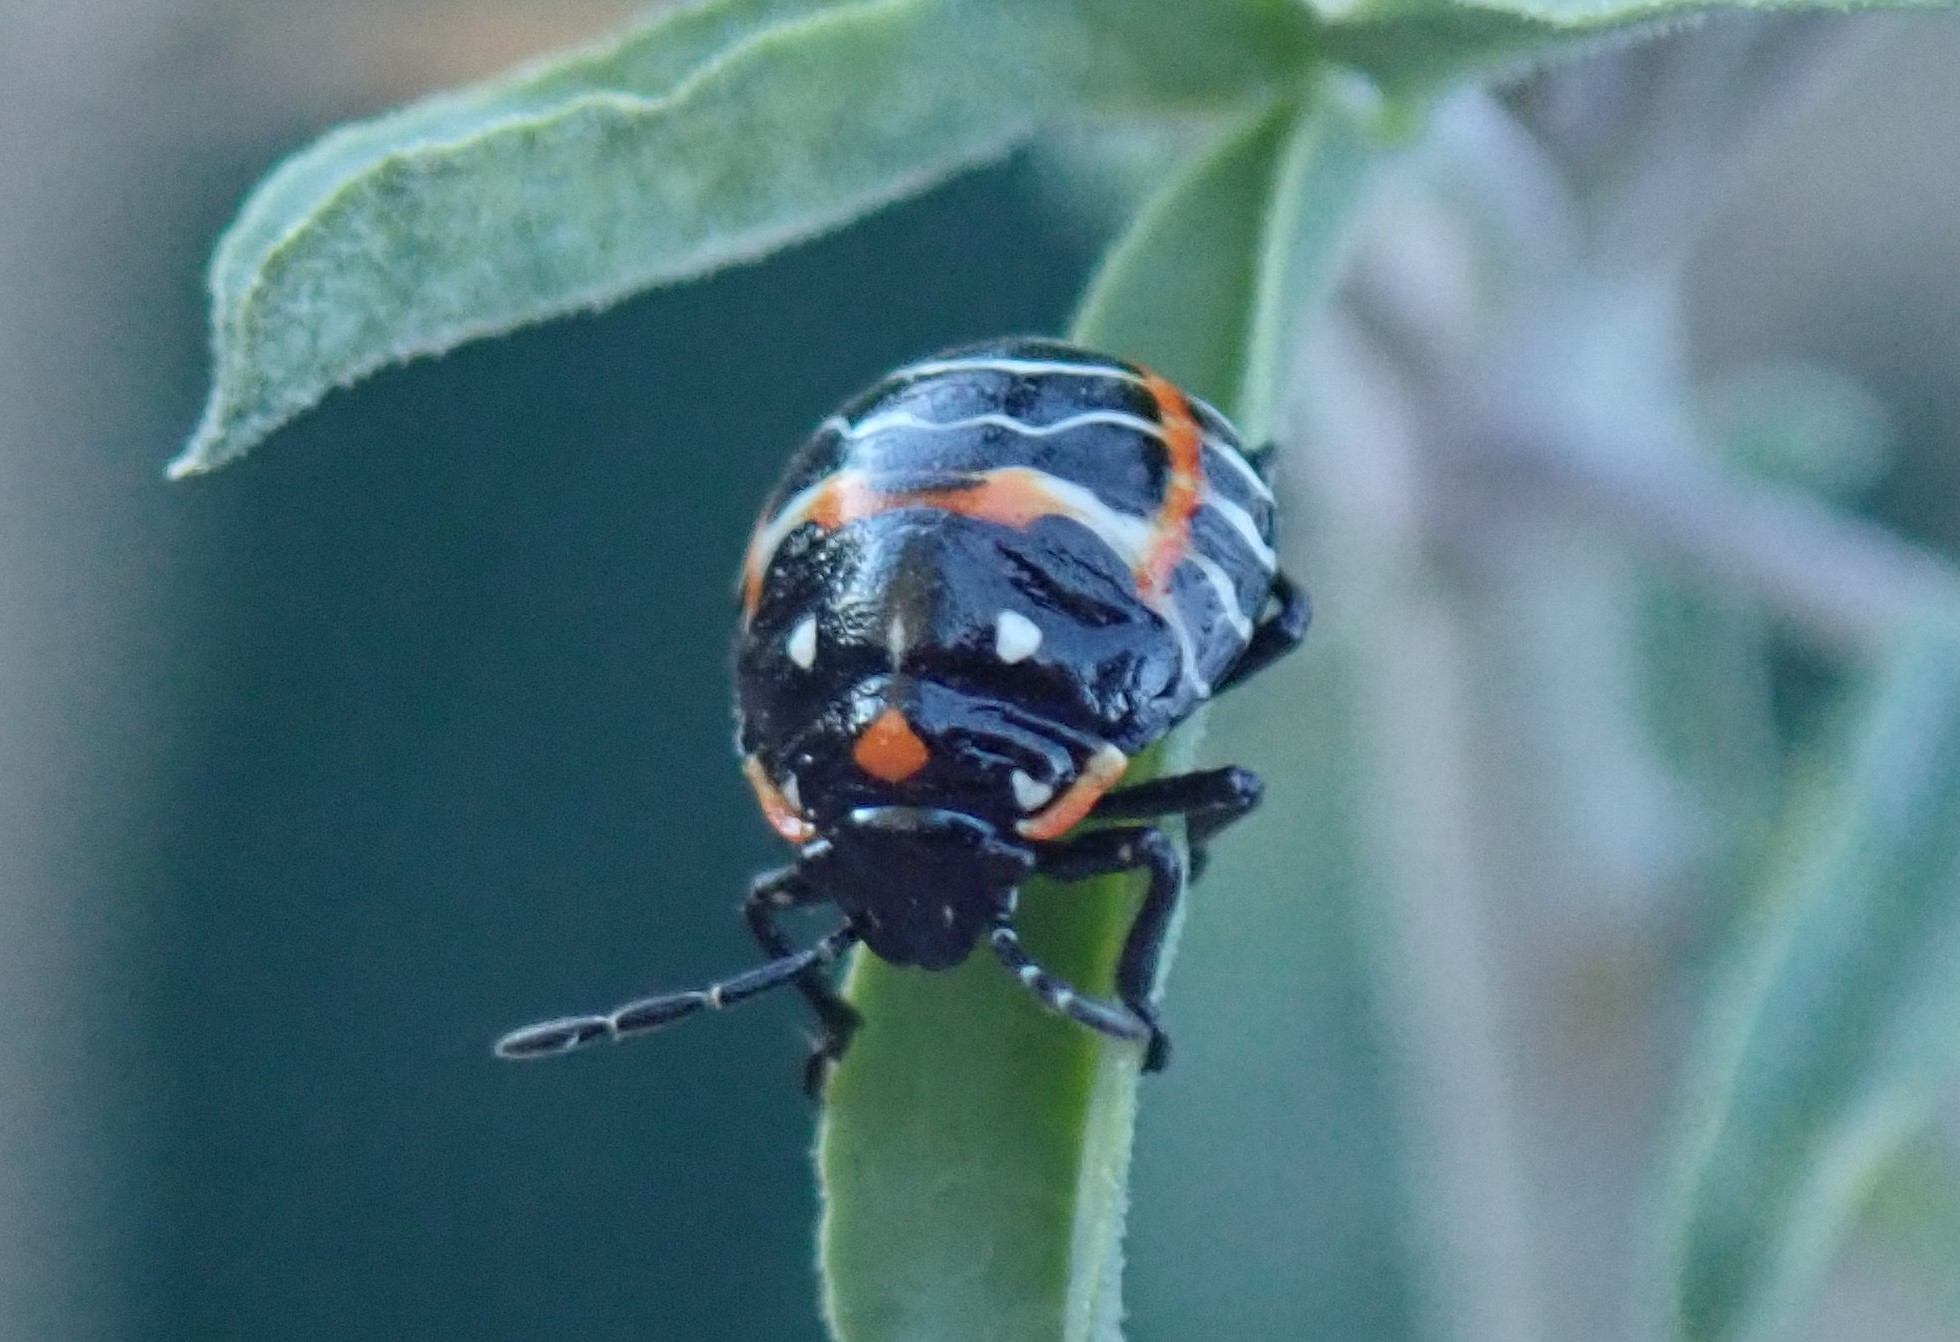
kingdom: Animalia
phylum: Arthropoda
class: Insecta
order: Hemiptera
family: Pentatomidae
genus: Murgantia
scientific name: Murgantia histrionica
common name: Harlequin bug
